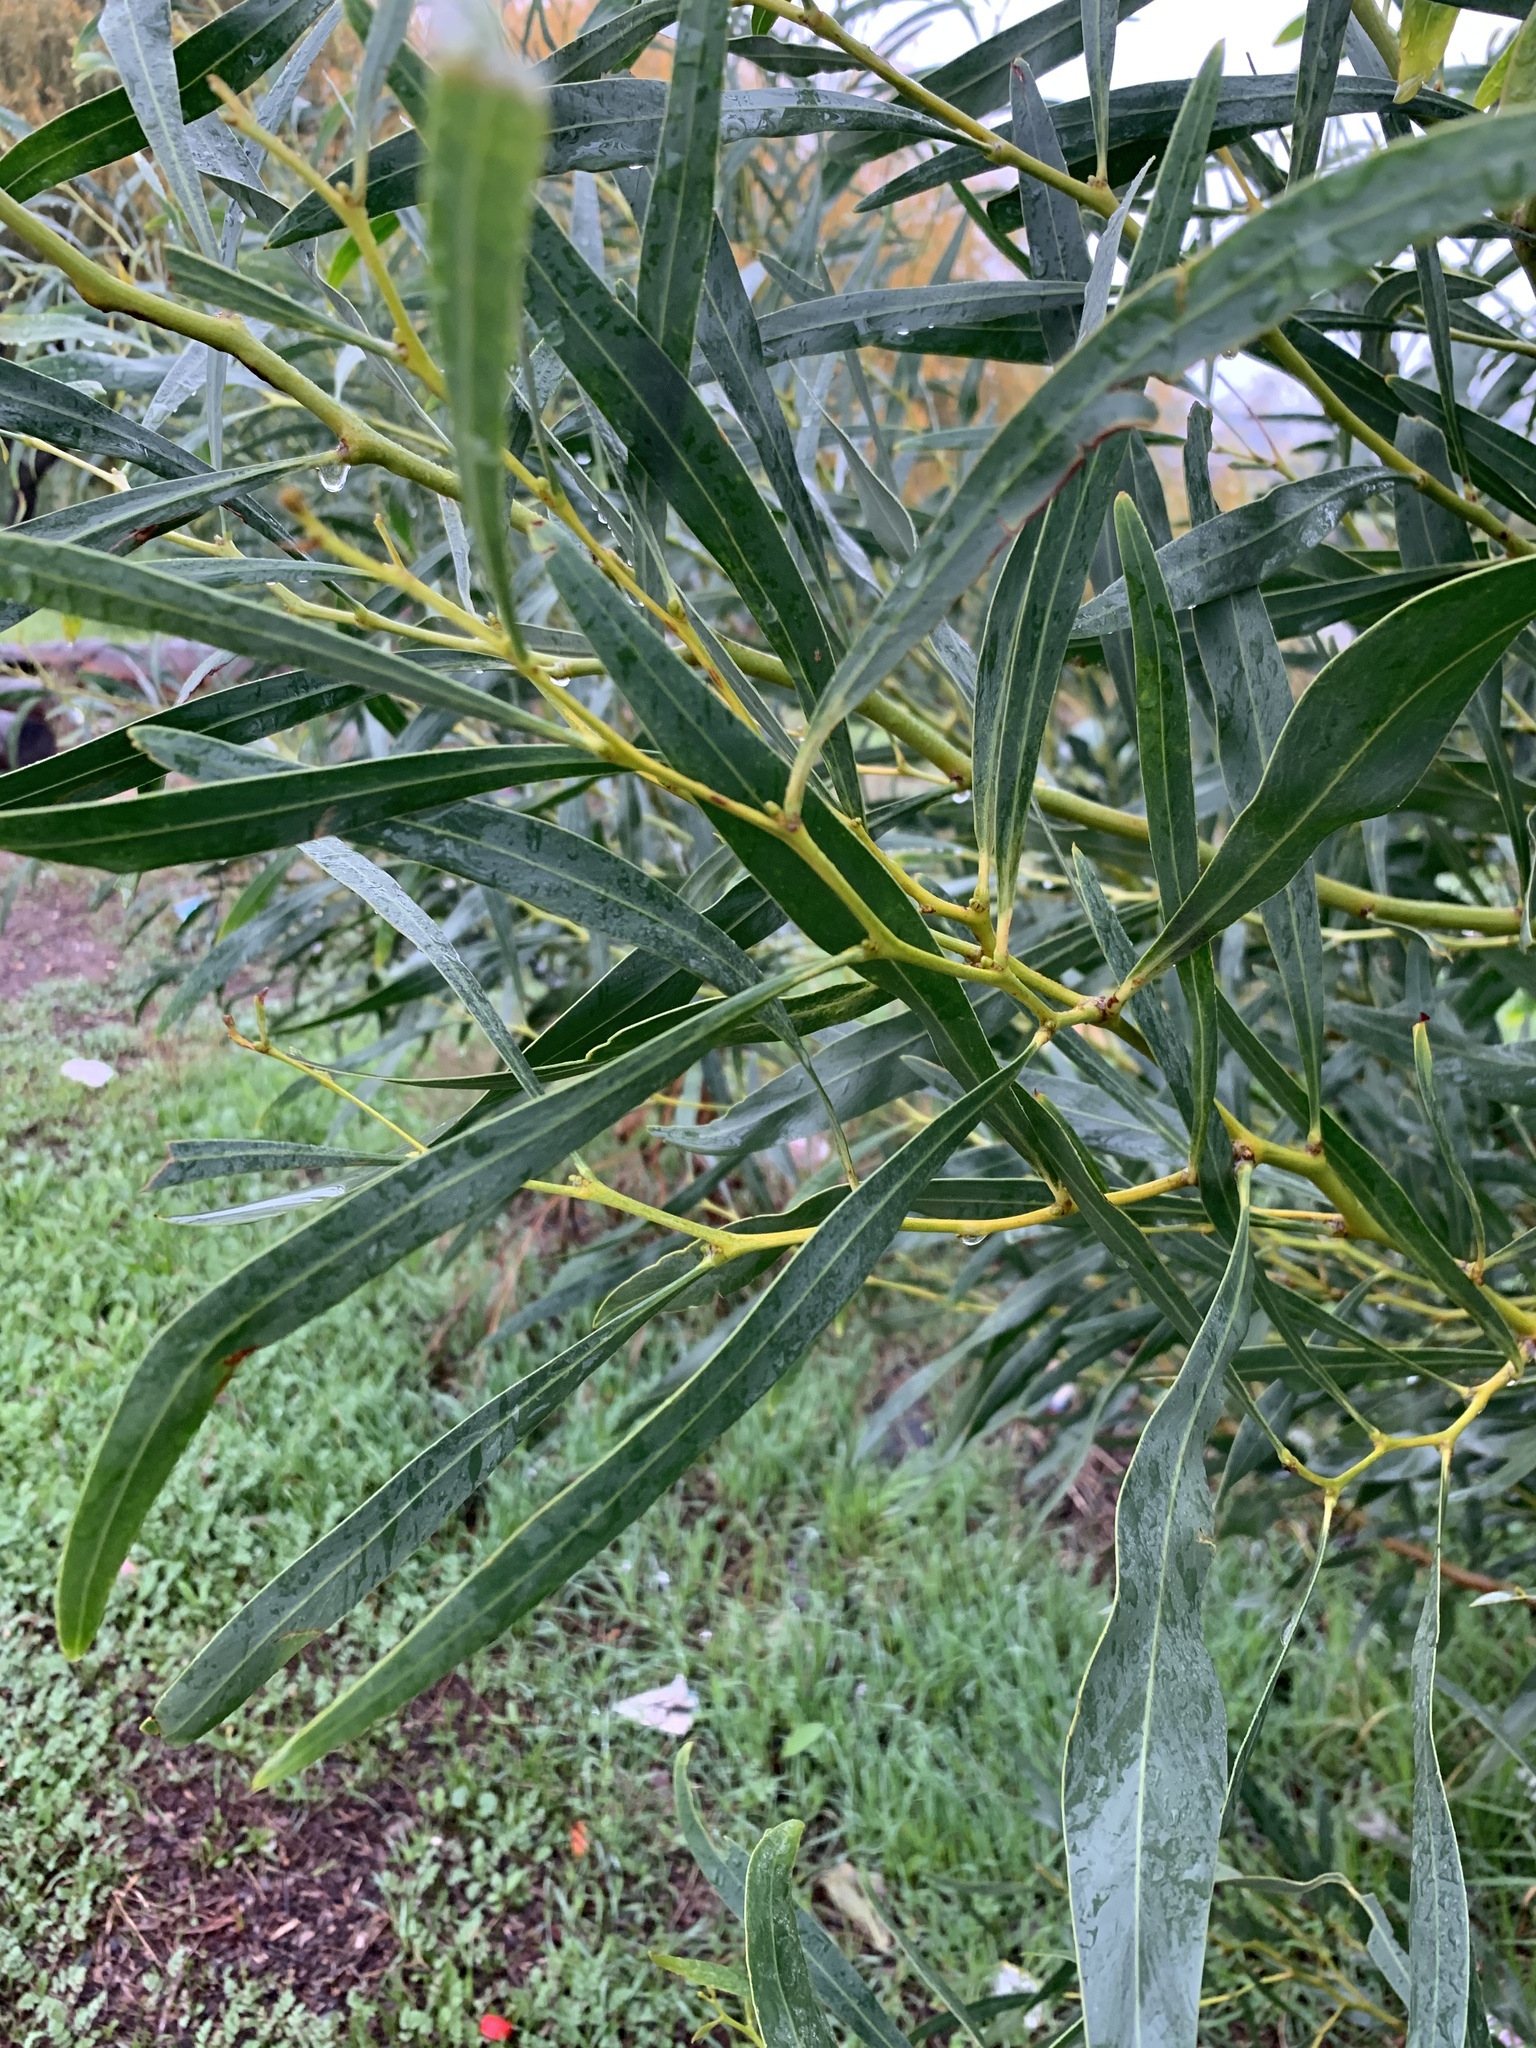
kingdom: Plantae
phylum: Tracheophyta
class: Magnoliopsida
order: Fabales
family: Fabaceae
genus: Acacia
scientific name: Acacia saligna
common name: Orange wattle
